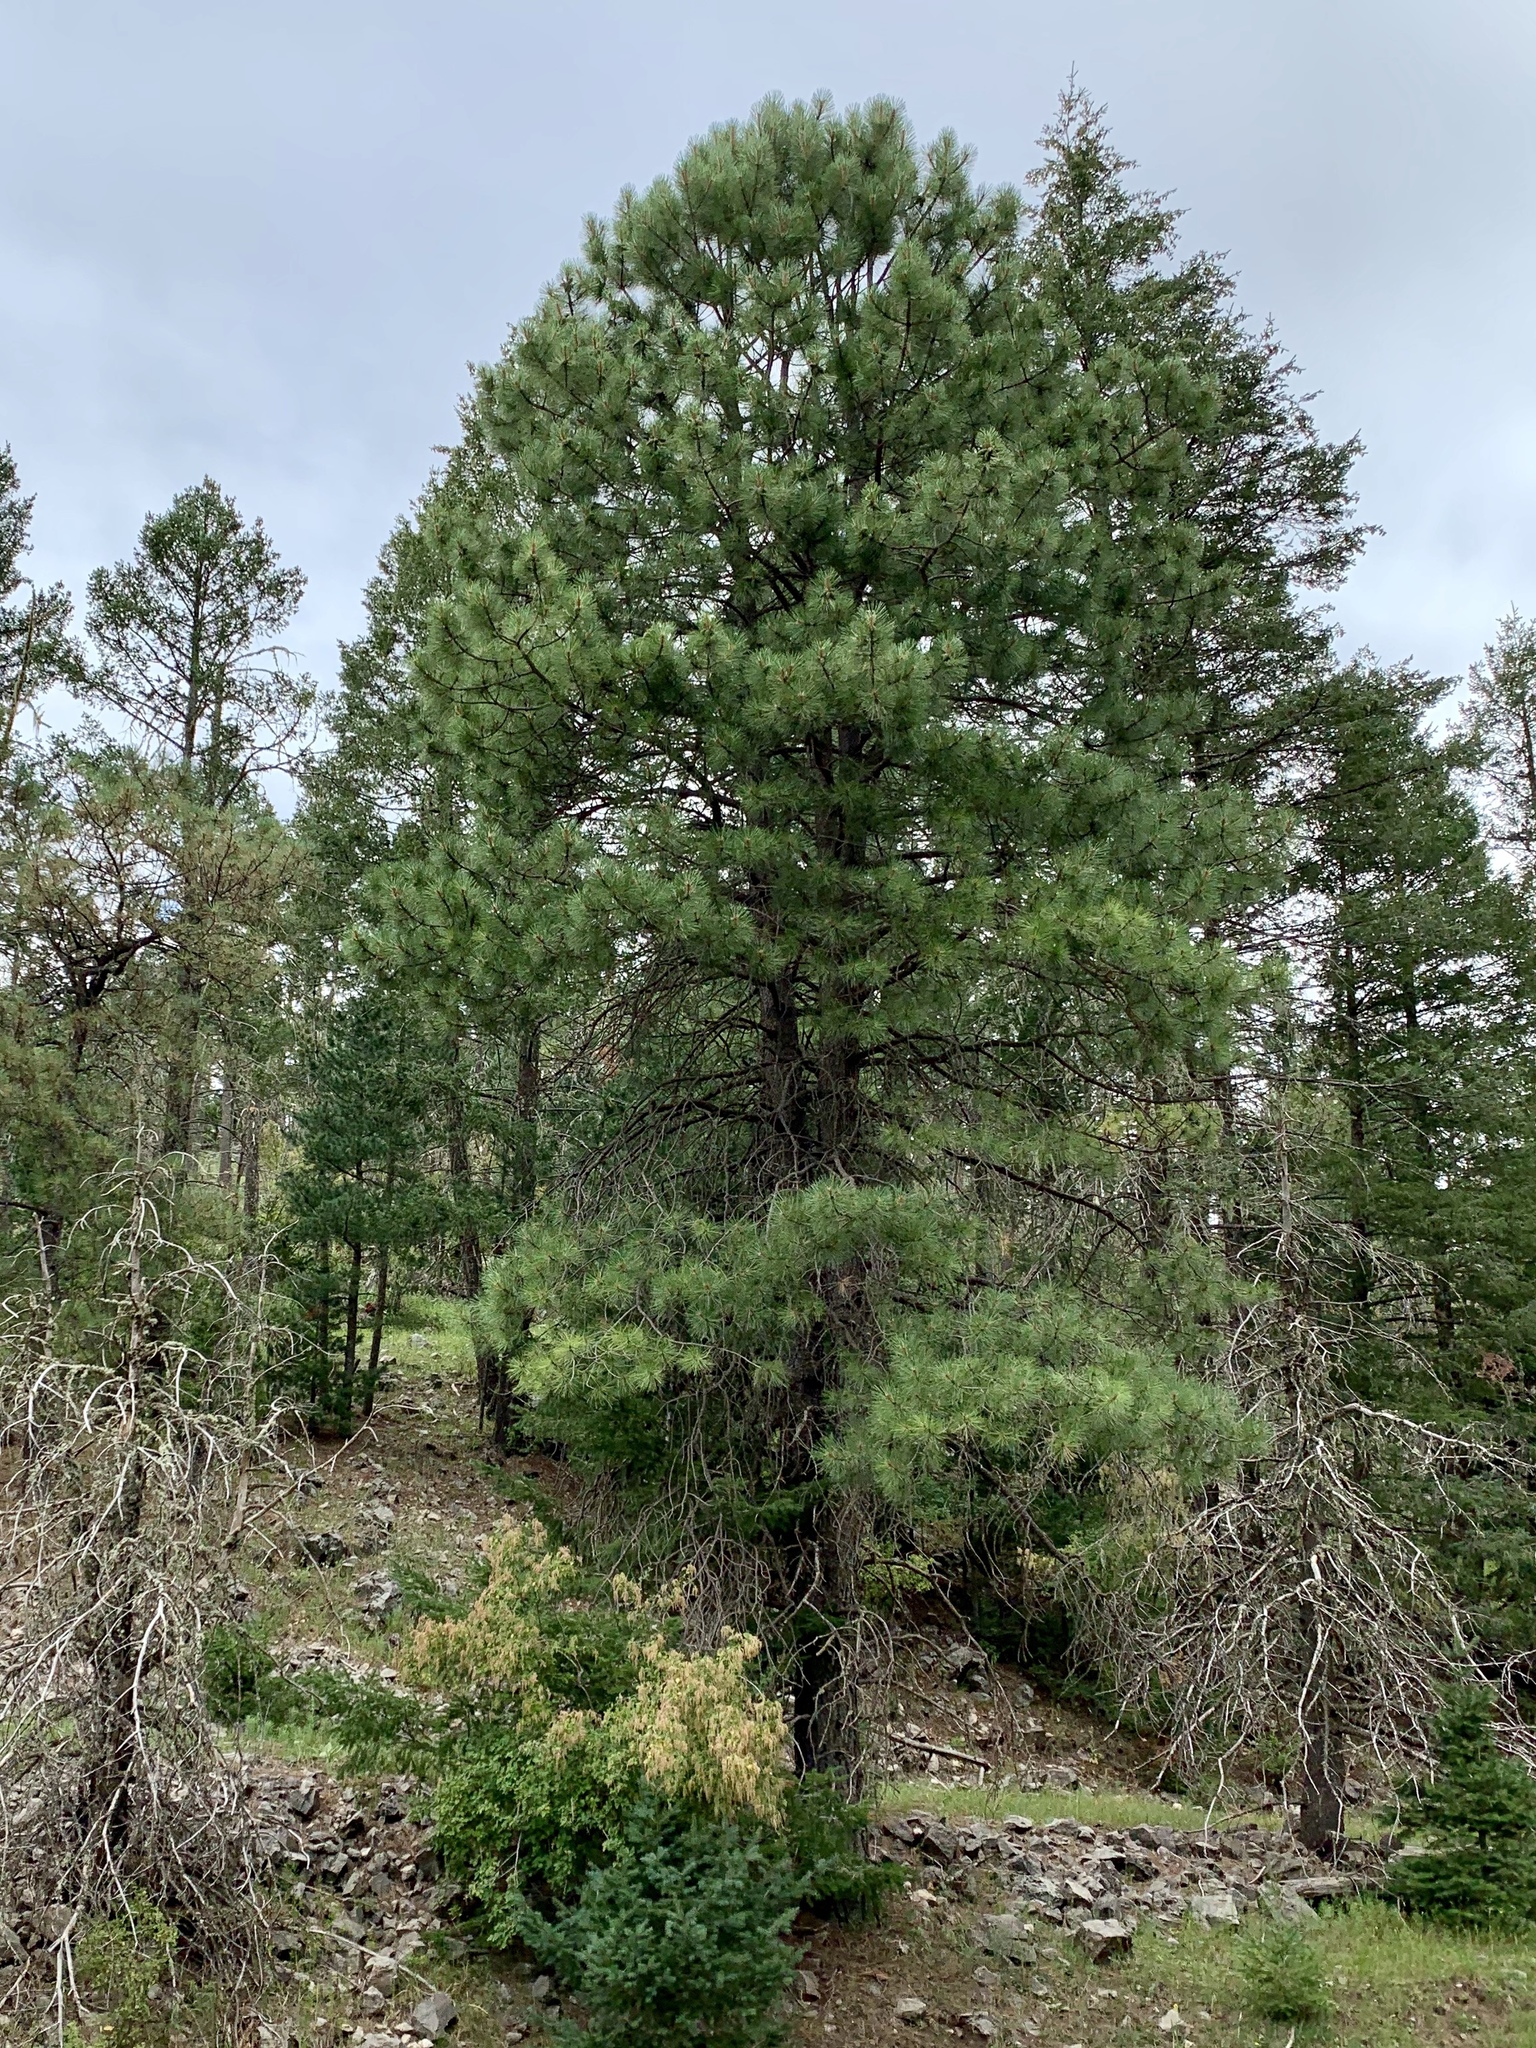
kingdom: Plantae
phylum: Tracheophyta
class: Pinopsida
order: Pinales
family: Pinaceae
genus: Pinus
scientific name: Pinus ponderosa
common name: Western yellow-pine
